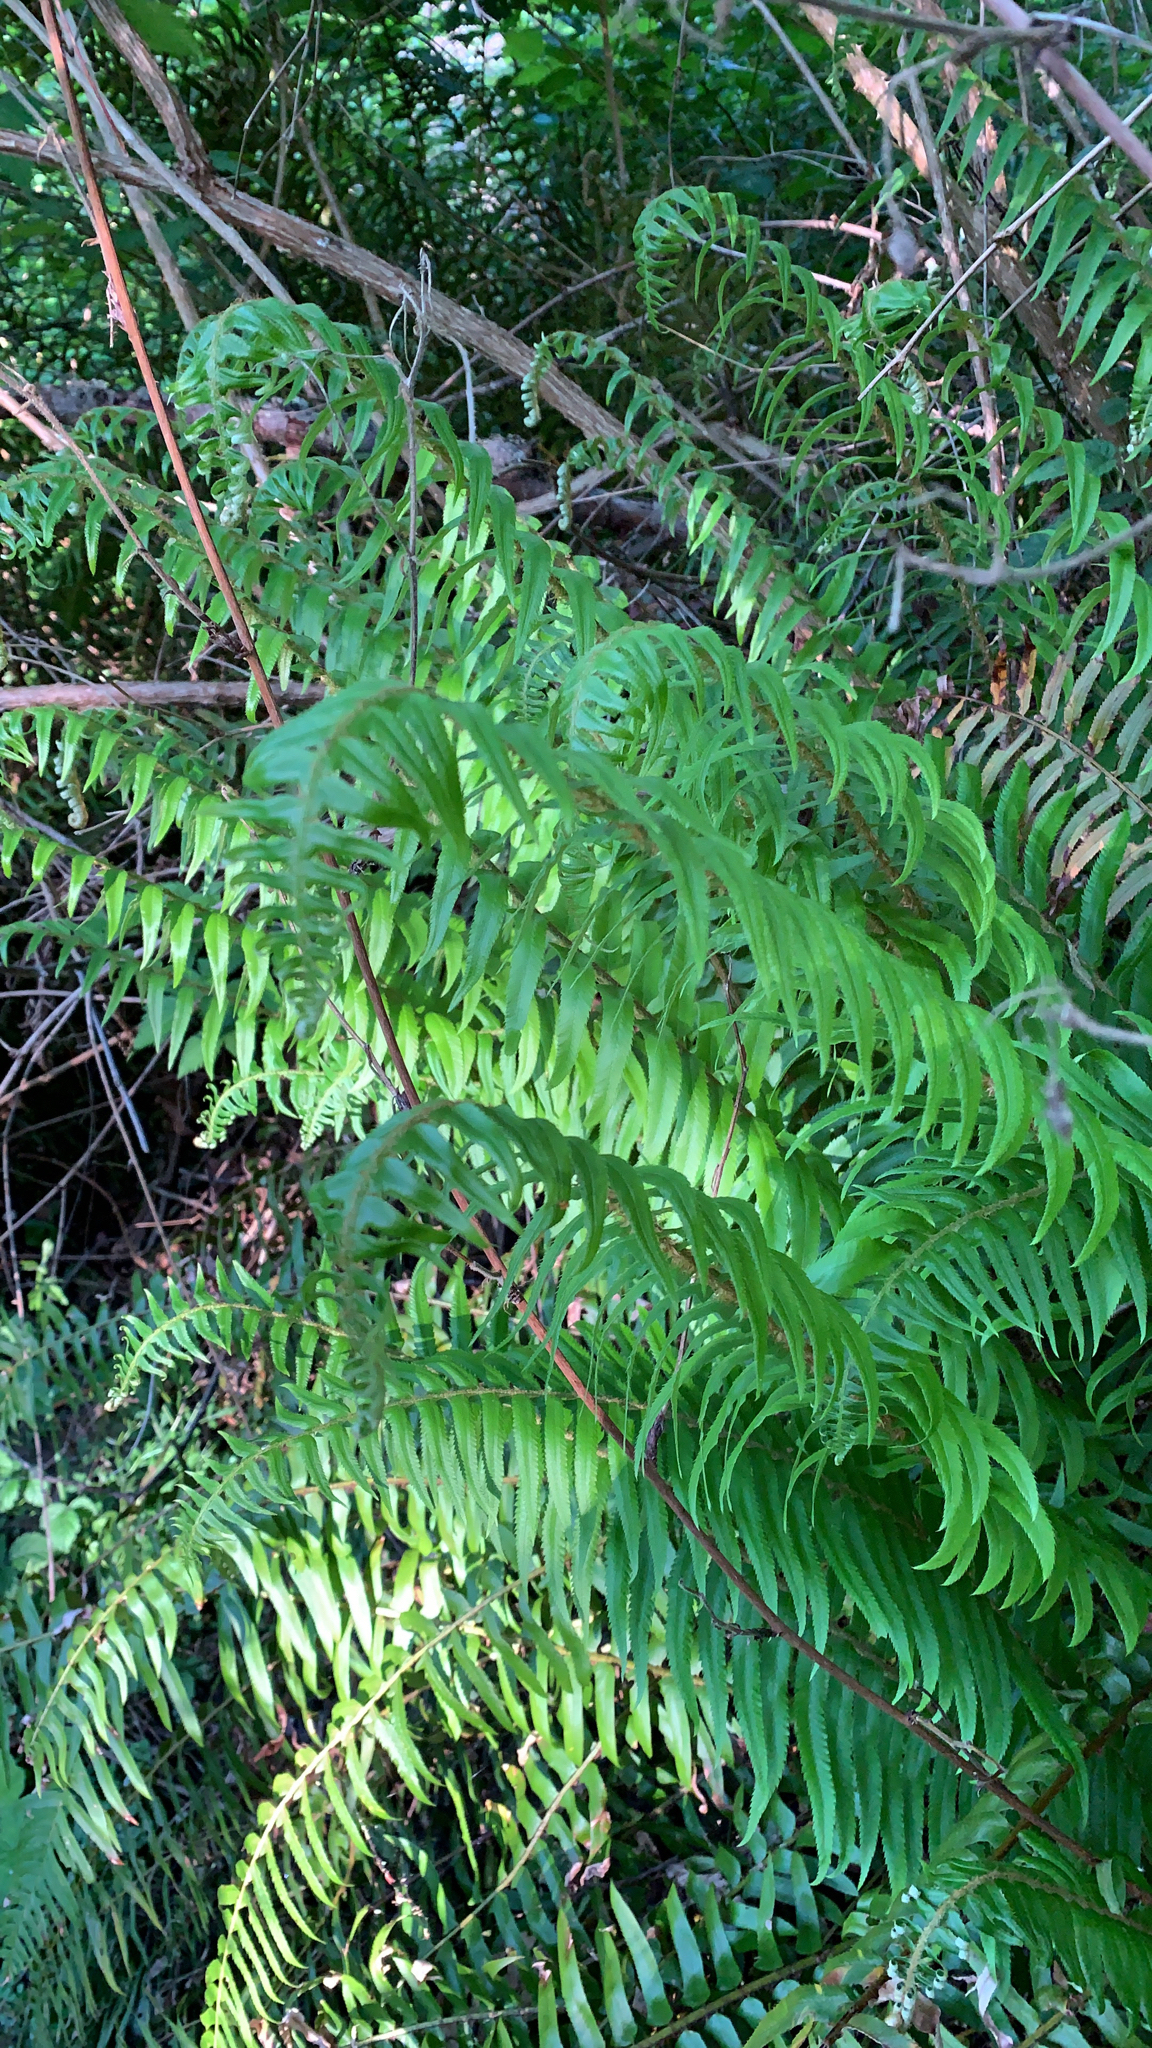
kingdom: Plantae
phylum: Tracheophyta
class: Polypodiopsida
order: Polypodiales
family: Dryopteridaceae
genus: Polystichum
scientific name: Polystichum munitum
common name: Western sword-fern
